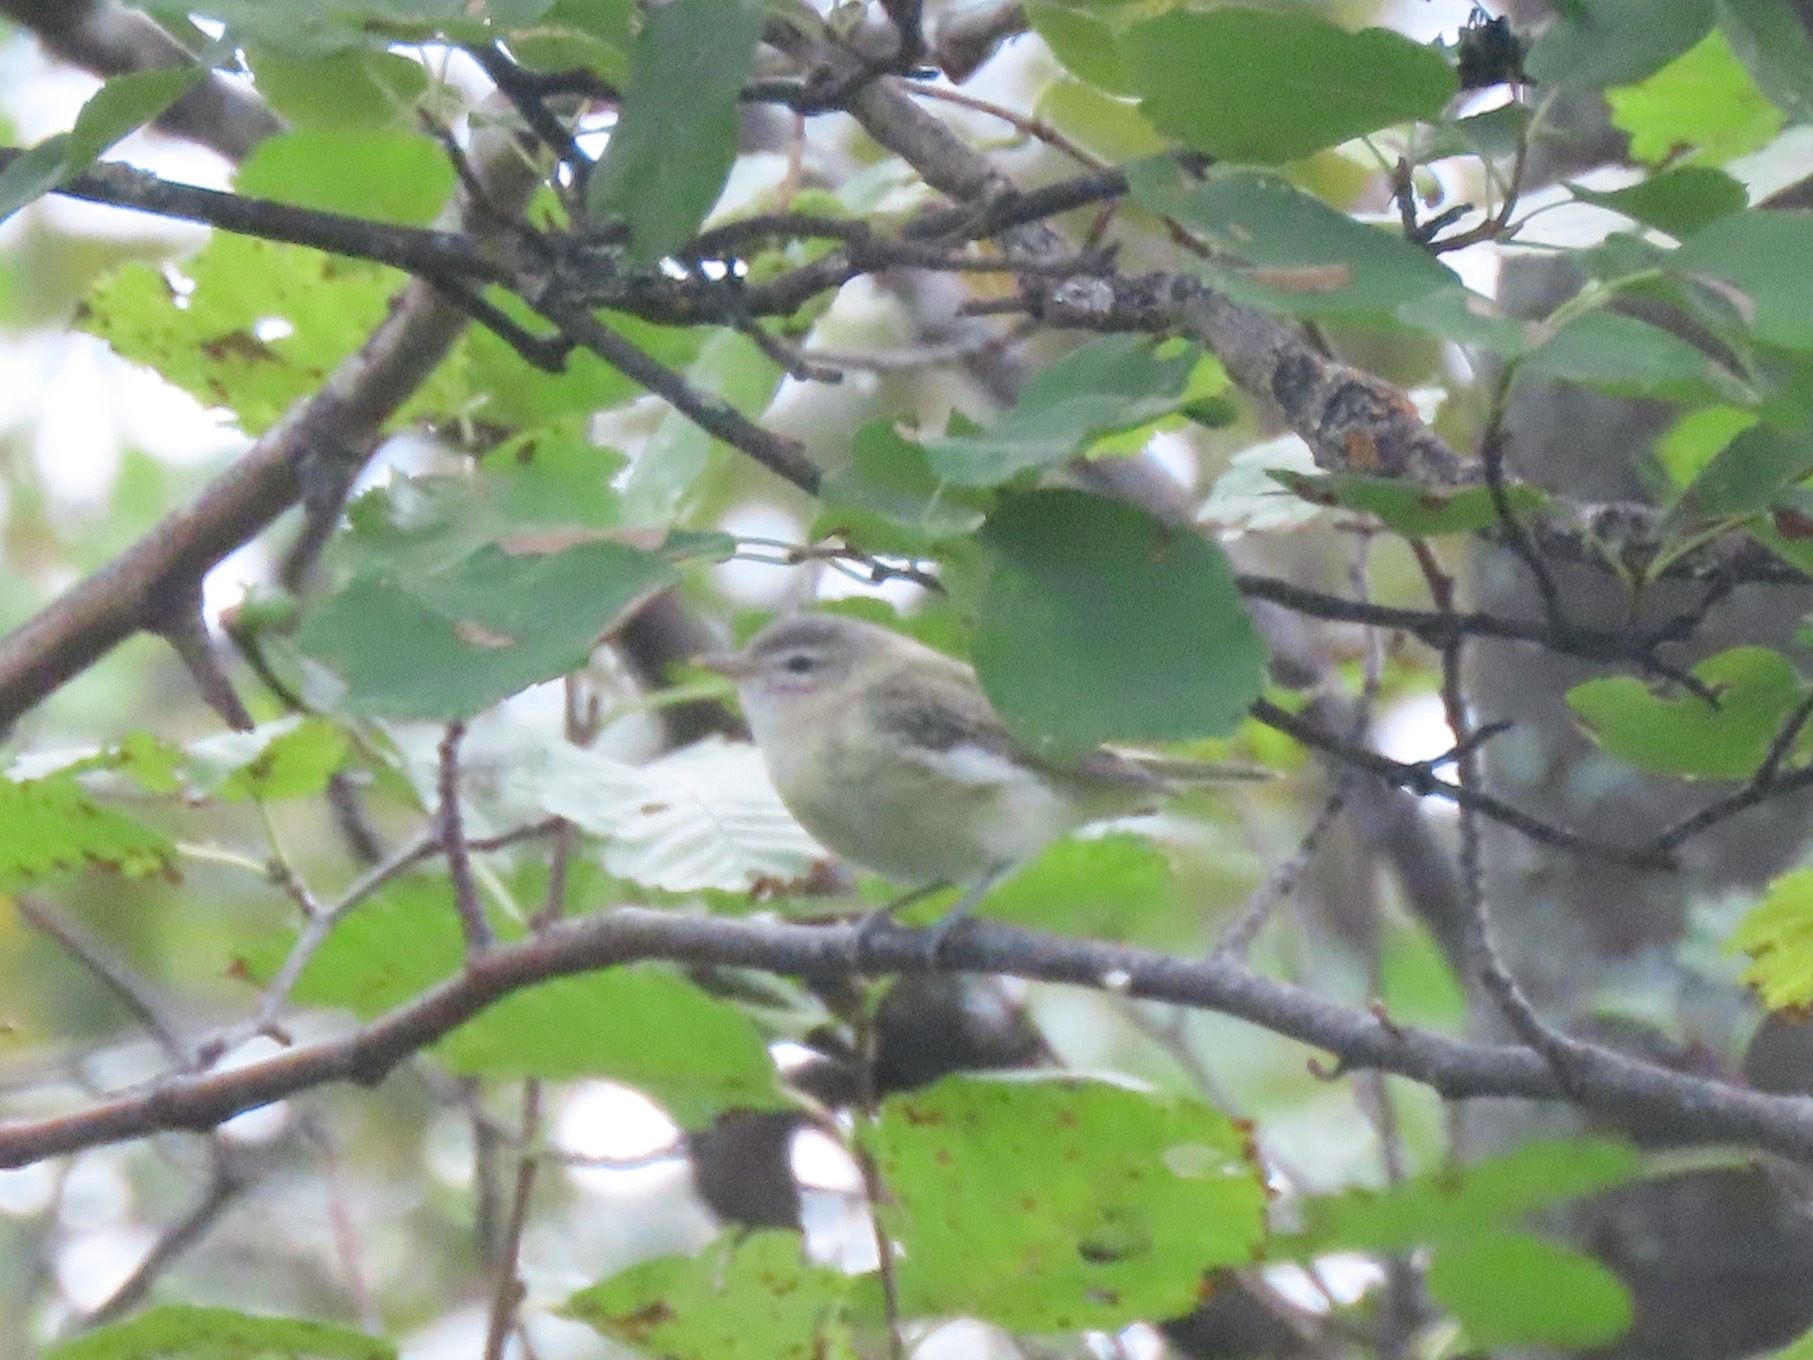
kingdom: Animalia
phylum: Chordata
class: Aves
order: Passeriformes
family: Vireonidae
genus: Vireo
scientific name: Vireo gilvus
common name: Warbling vireo
